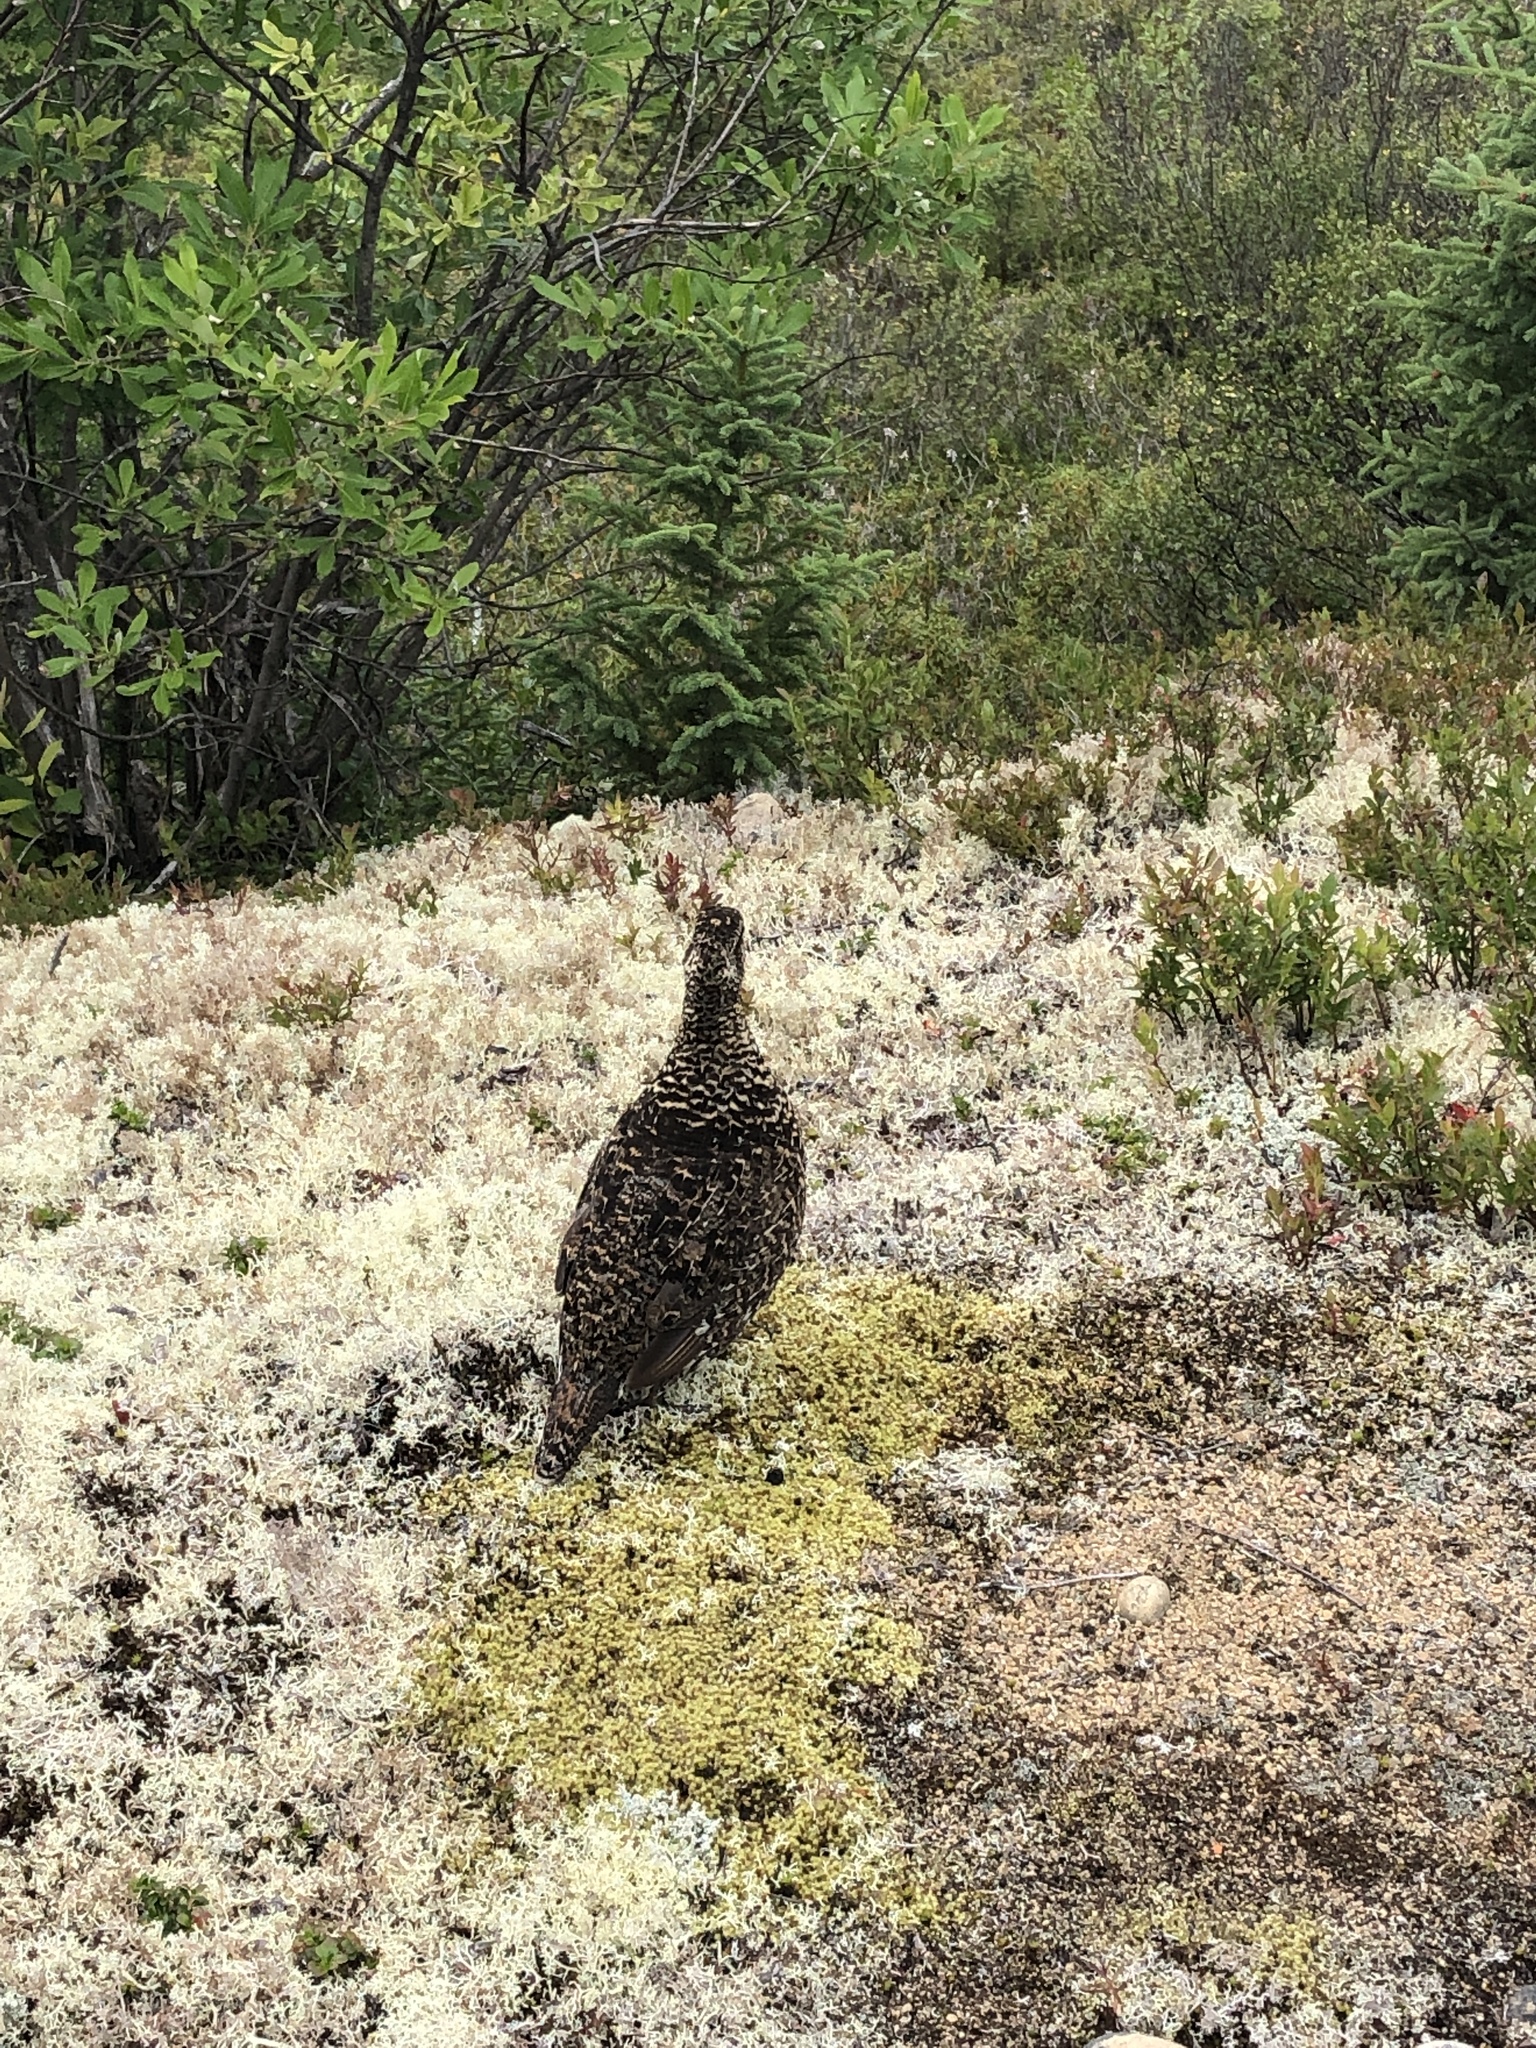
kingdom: Animalia
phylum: Chordata
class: Aves
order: Galliformes
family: Phasianidae
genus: Canachites
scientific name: Canachites canadensis
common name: Spruce grouse
